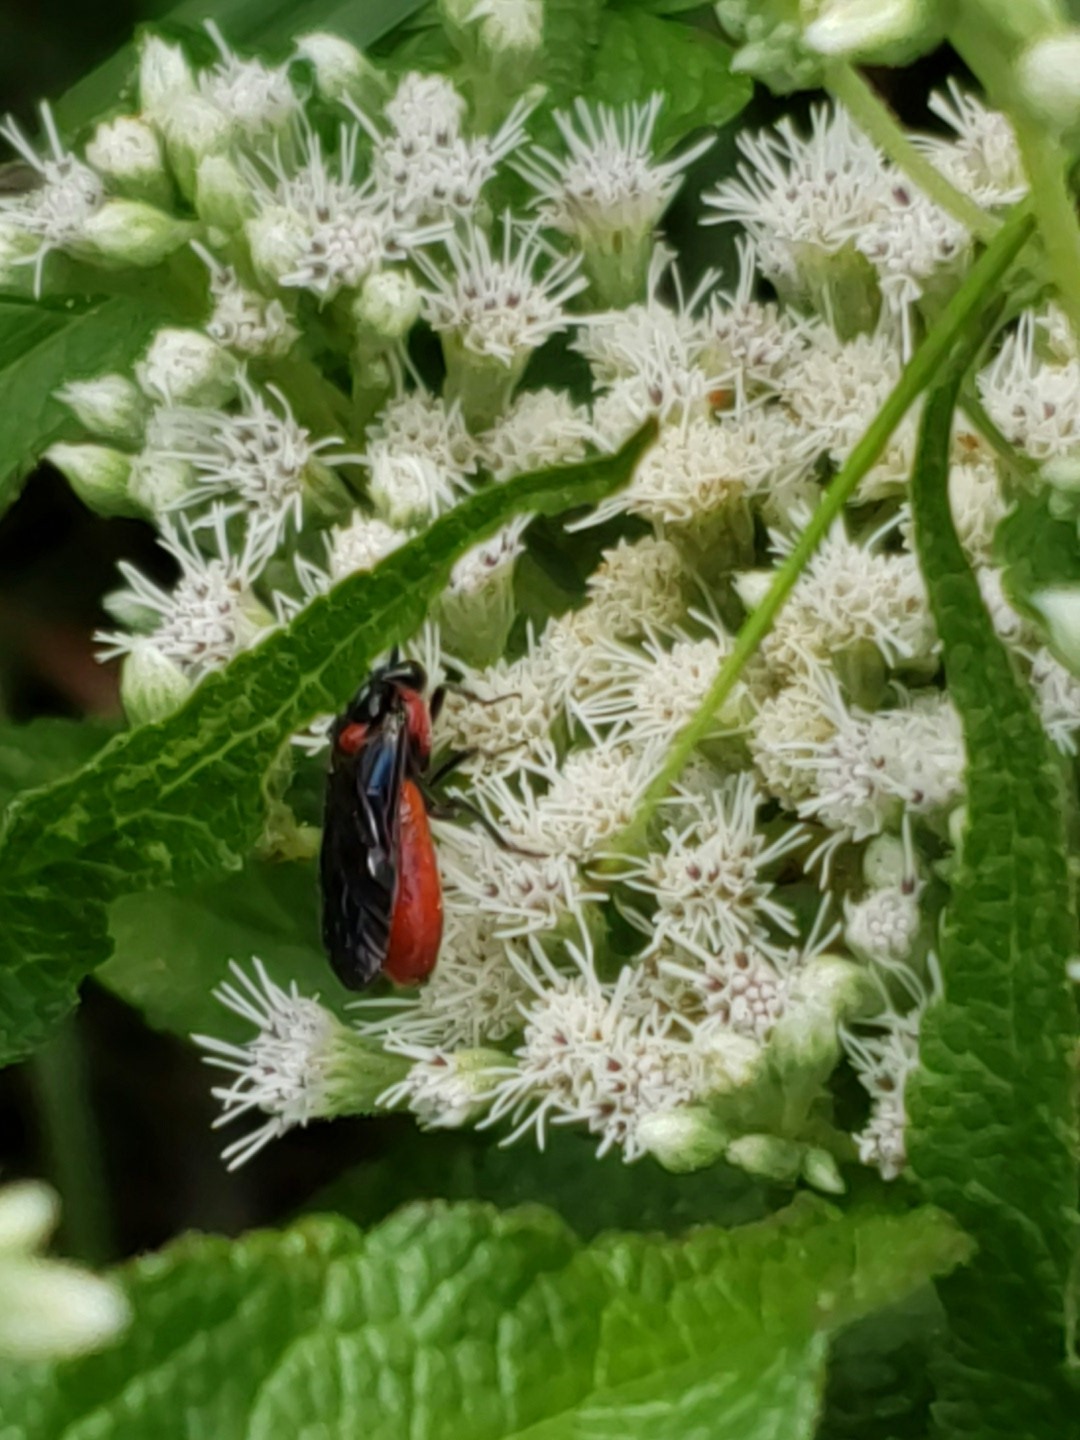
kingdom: Animalia
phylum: Arthropoda
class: Insecta
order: Hymenoptera
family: Argidae
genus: Arge
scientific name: Arge
